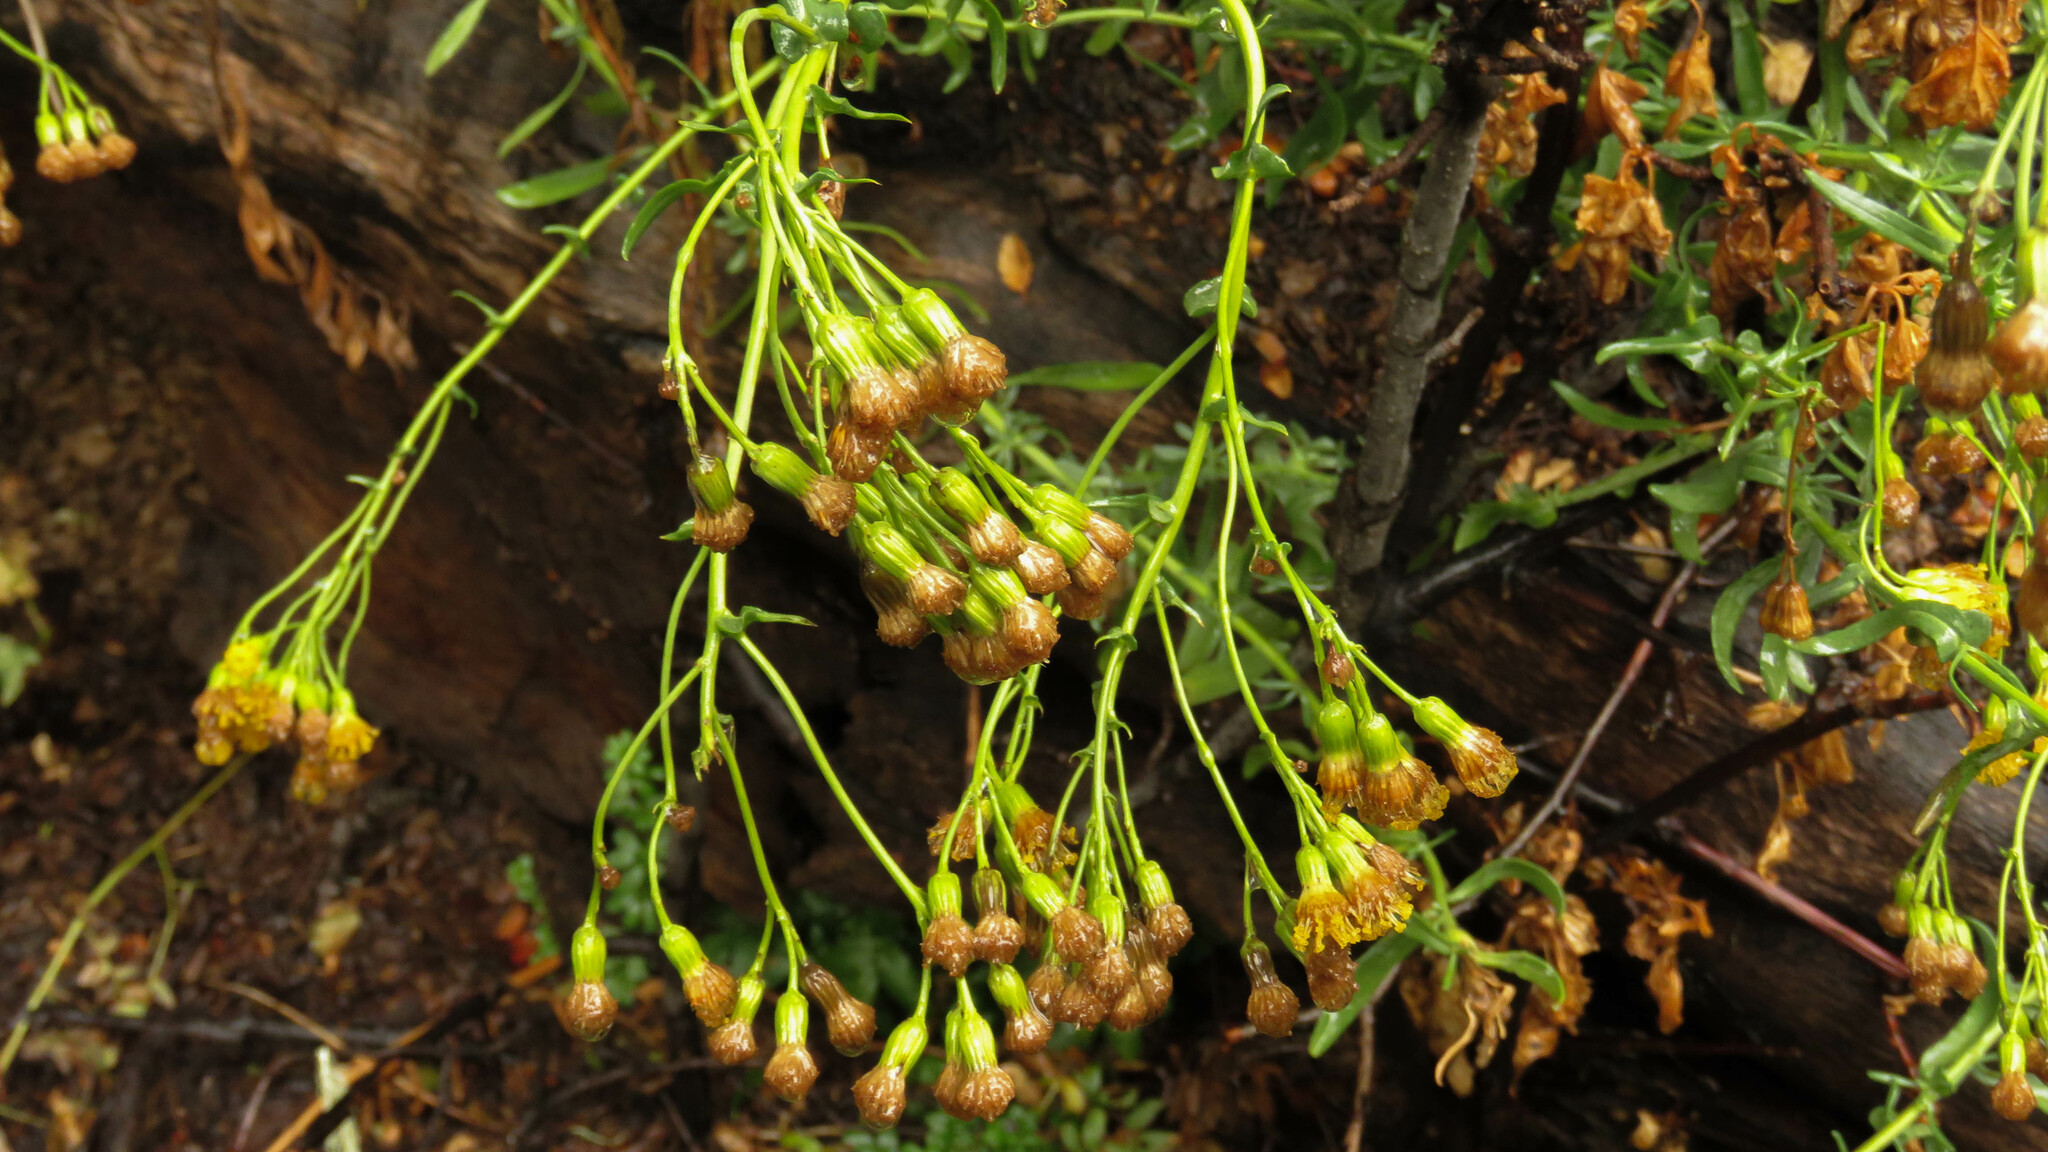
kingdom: Plantae
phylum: Tracheophyta
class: Magnoliopsida
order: Asterales
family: Asteraceae
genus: Senecio
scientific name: Senecio subumbellatus
